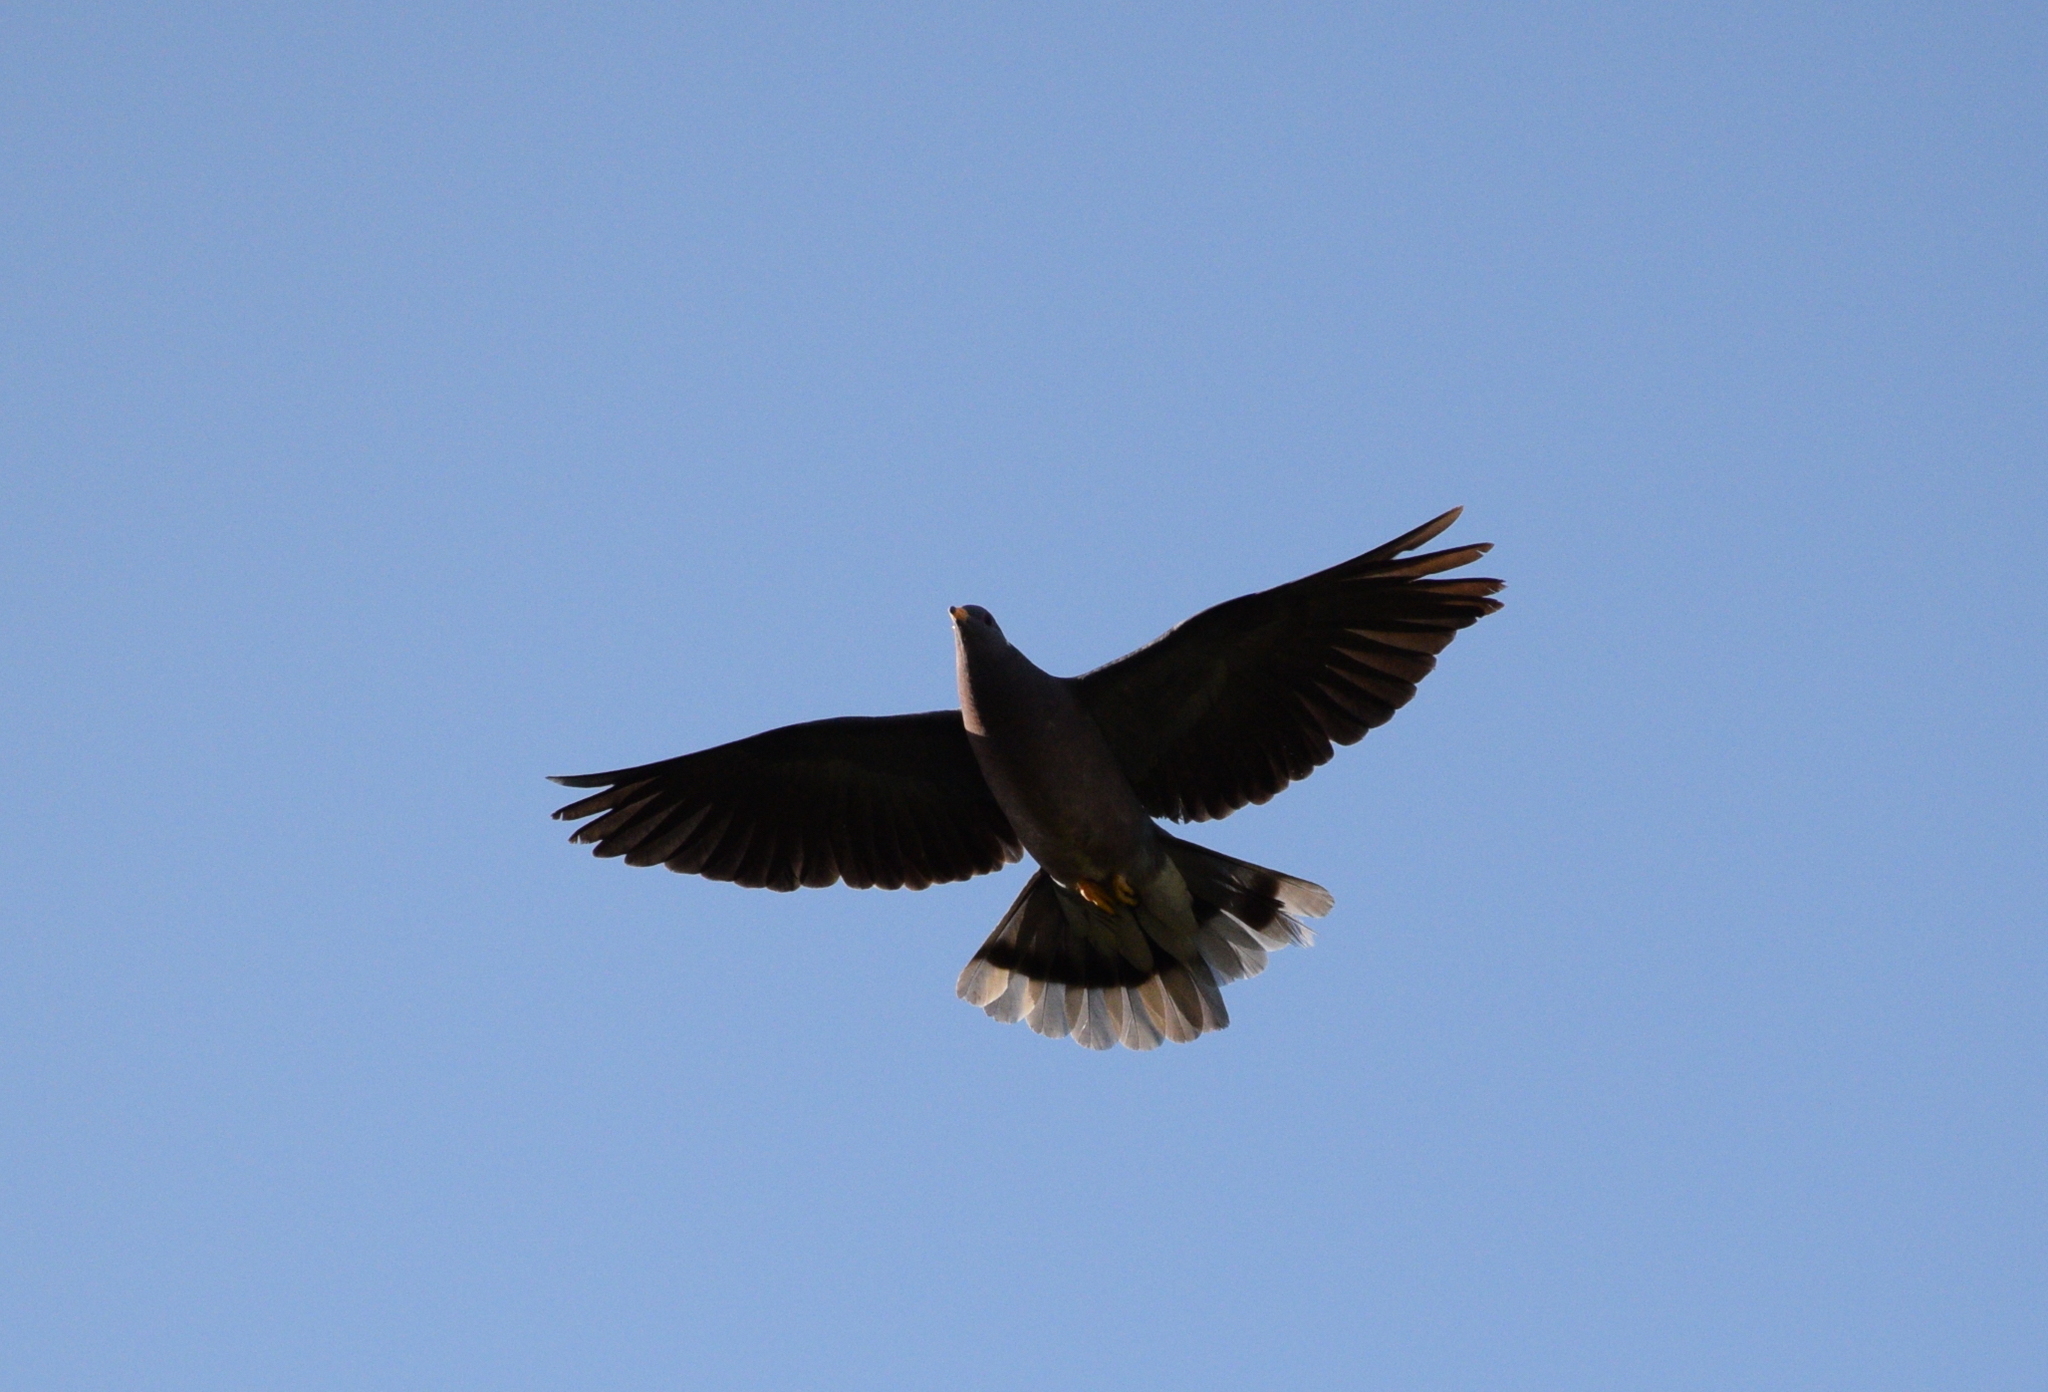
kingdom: Animalia
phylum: Chordata
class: Aves
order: Columbiformes
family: Columbidae
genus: Patagioenas
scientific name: Patagioenas fasciata
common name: Band-tailed pigeon
